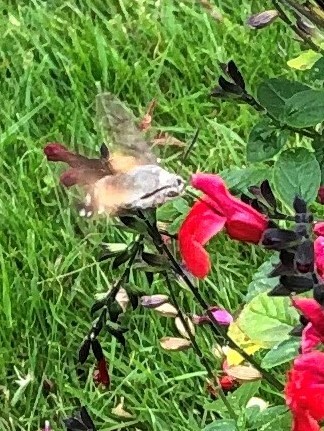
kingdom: Animalia
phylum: Arthropoda
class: Insecta
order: Lepidoptera
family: Sphingidae
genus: Macroglossum
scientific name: Macroglossum stellatarum
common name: Humming-bird hawk-moth
